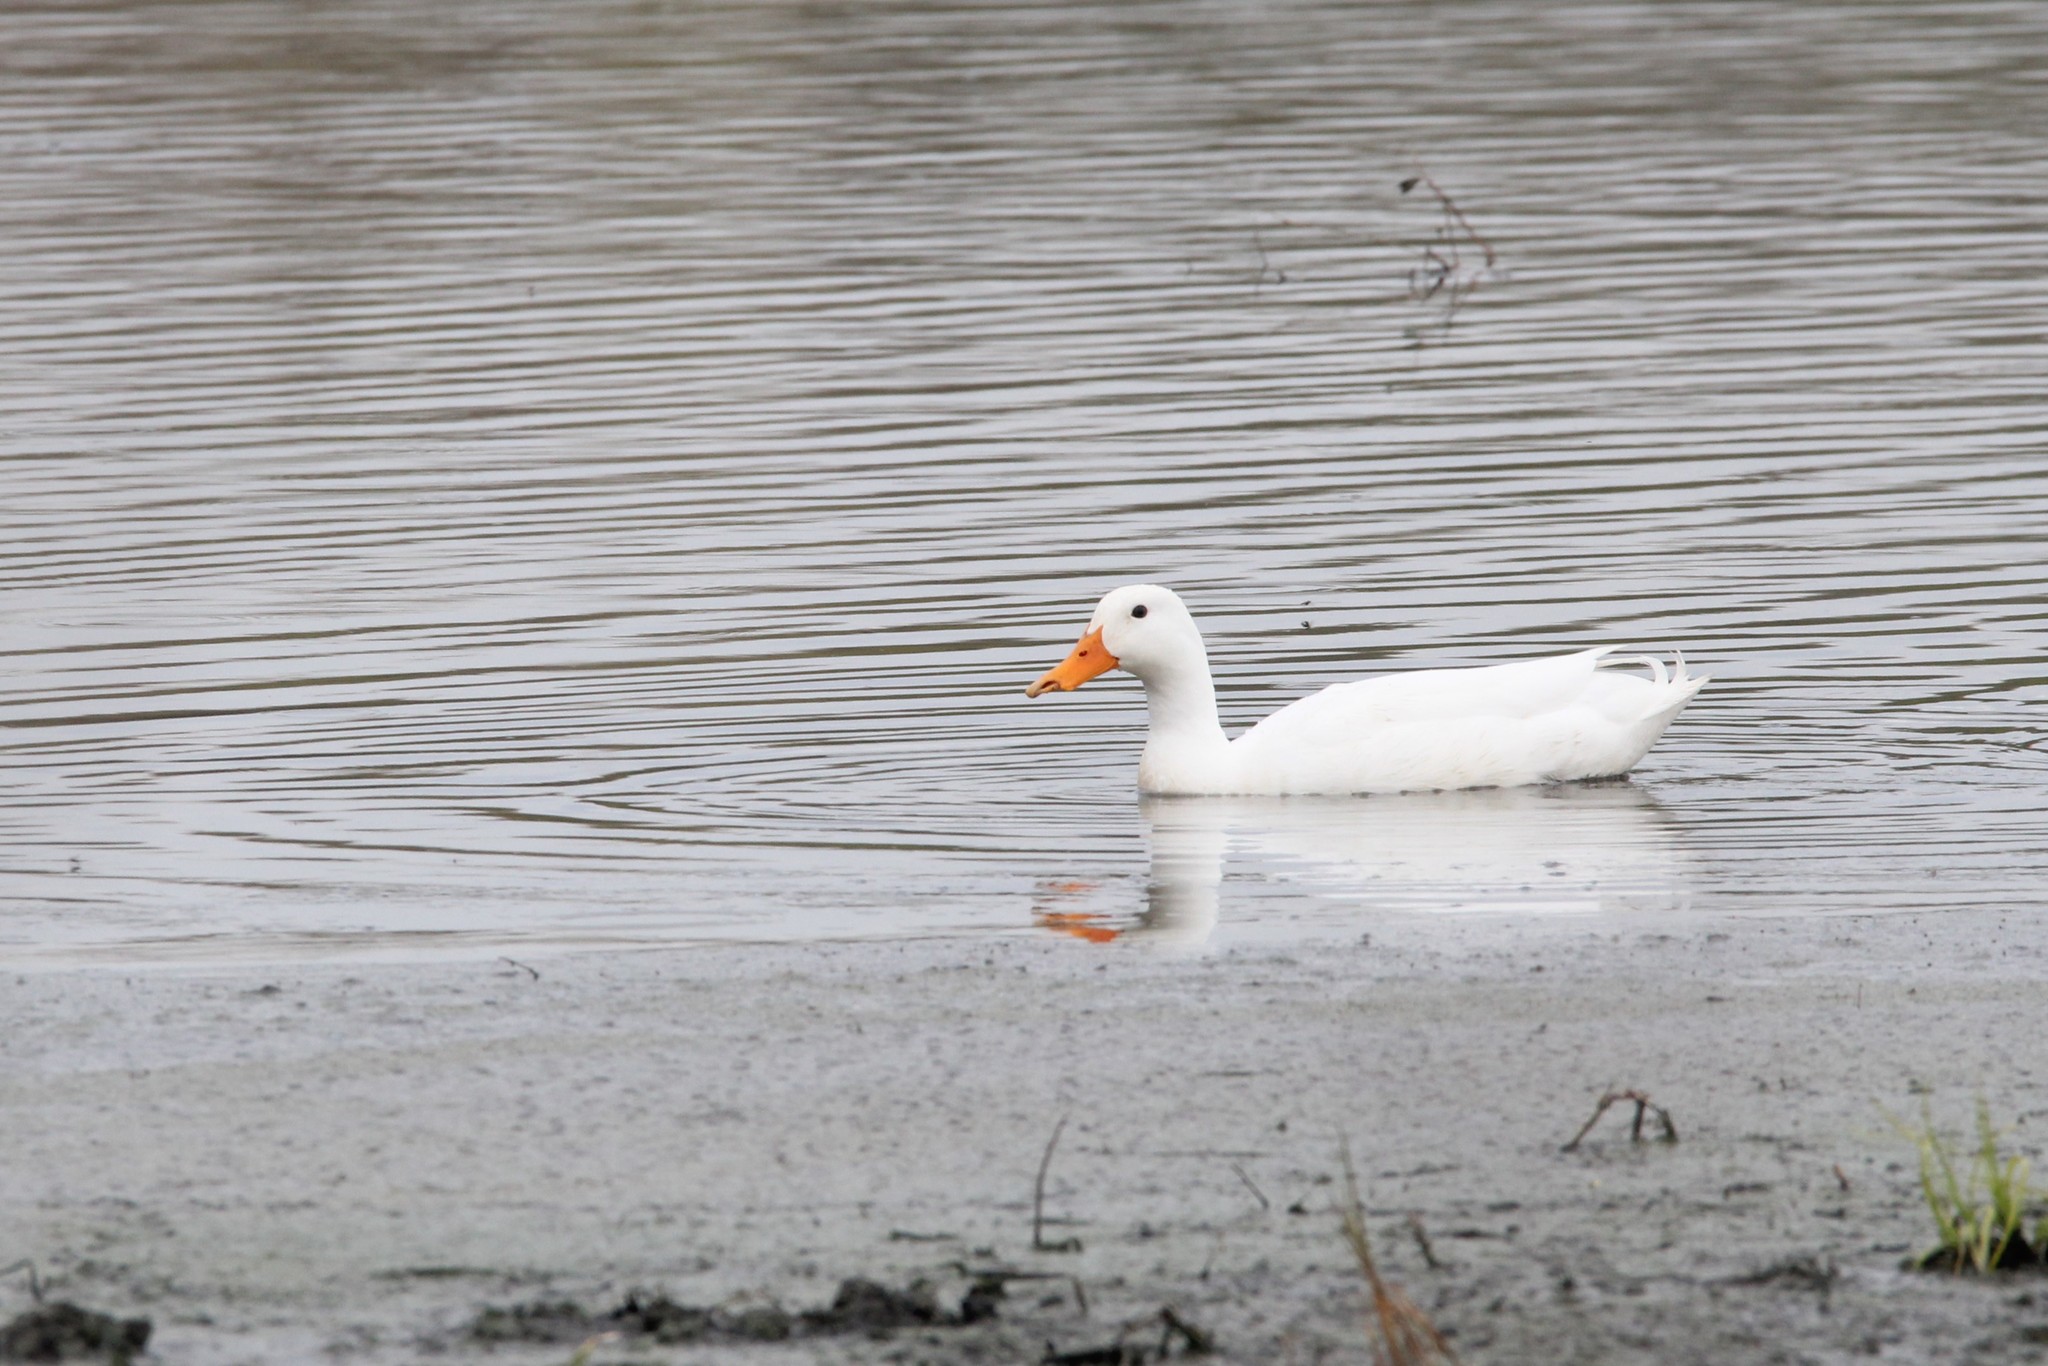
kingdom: Animalia
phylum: Chordata
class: Aves
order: Anseriformes
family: Anatidae
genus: Anas
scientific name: Anas platyrhynchos
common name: Mallard
